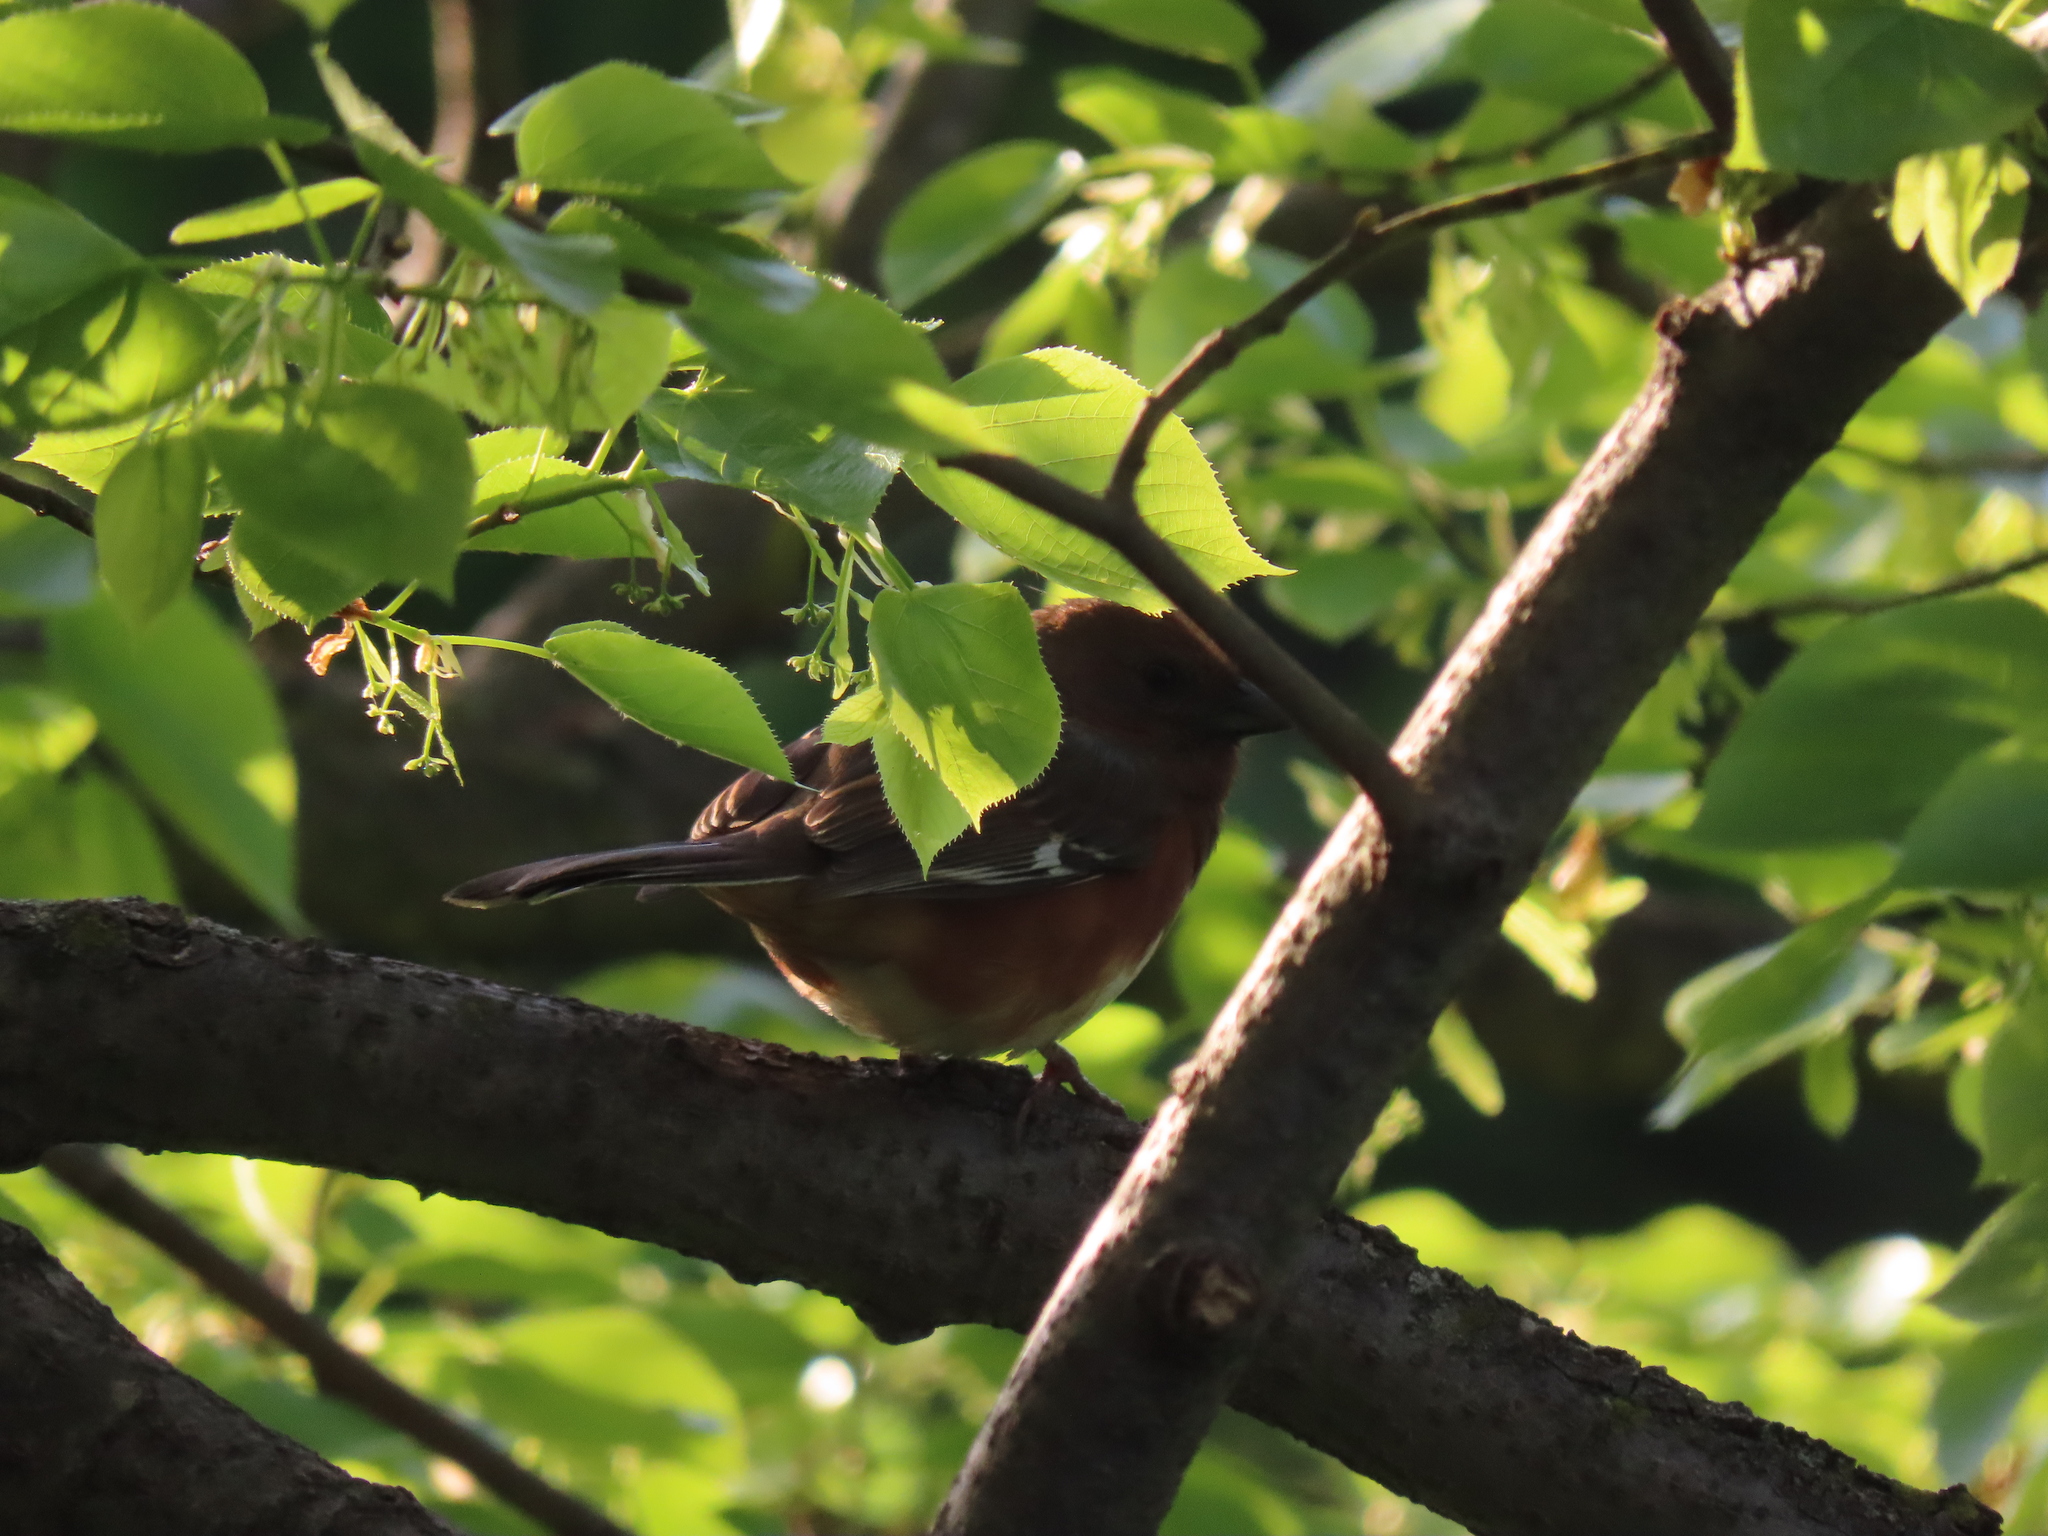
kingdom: Animalia
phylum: Chordata
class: Aves
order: Passeriformes
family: Passerellidae
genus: Pipilo
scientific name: Pipilo erythrophthalmus
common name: Eastern towhee
